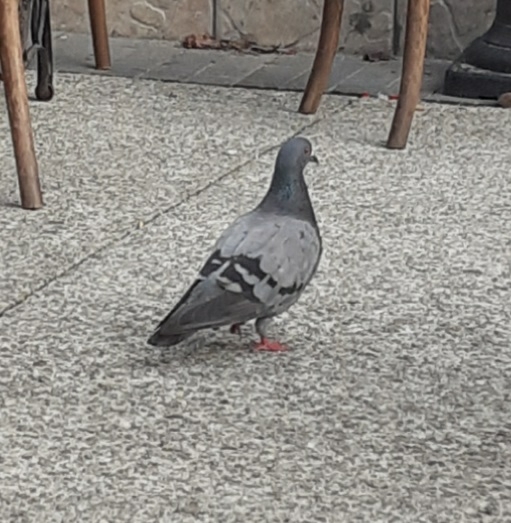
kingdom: Animalia
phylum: Chordata
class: Aves
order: Columbiformes
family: Columbidae
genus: Columba
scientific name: Columba livia
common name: Rock pigeon
